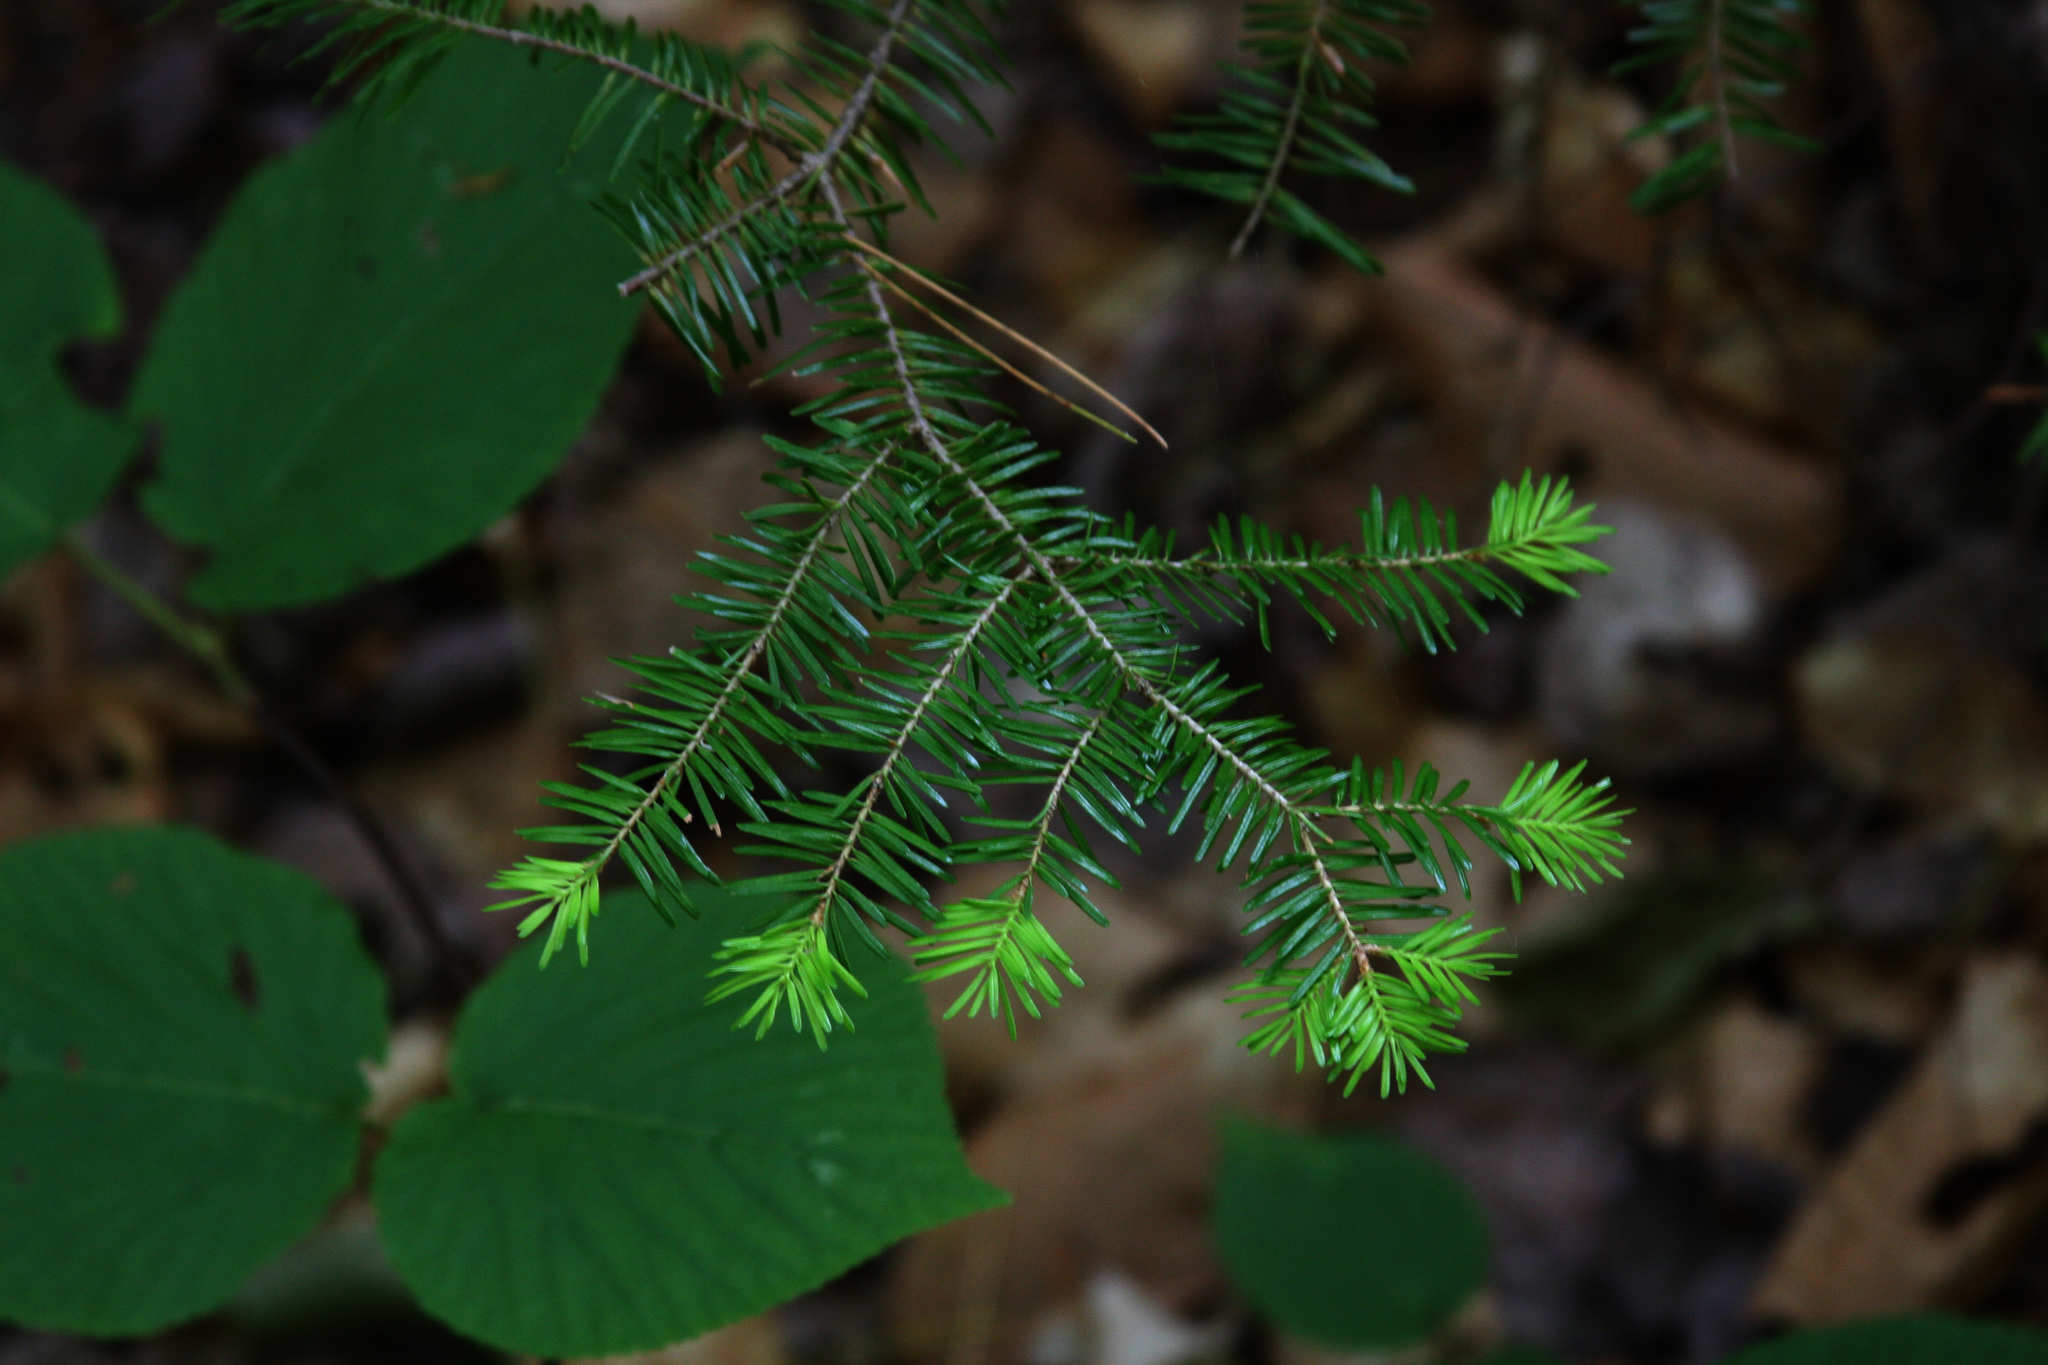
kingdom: Plantae
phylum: Tracheophyta
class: Pinopsida
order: Pinales
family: Pinaceae
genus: Tsuga
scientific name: Tsuga canadensis
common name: Eastern hemlock
